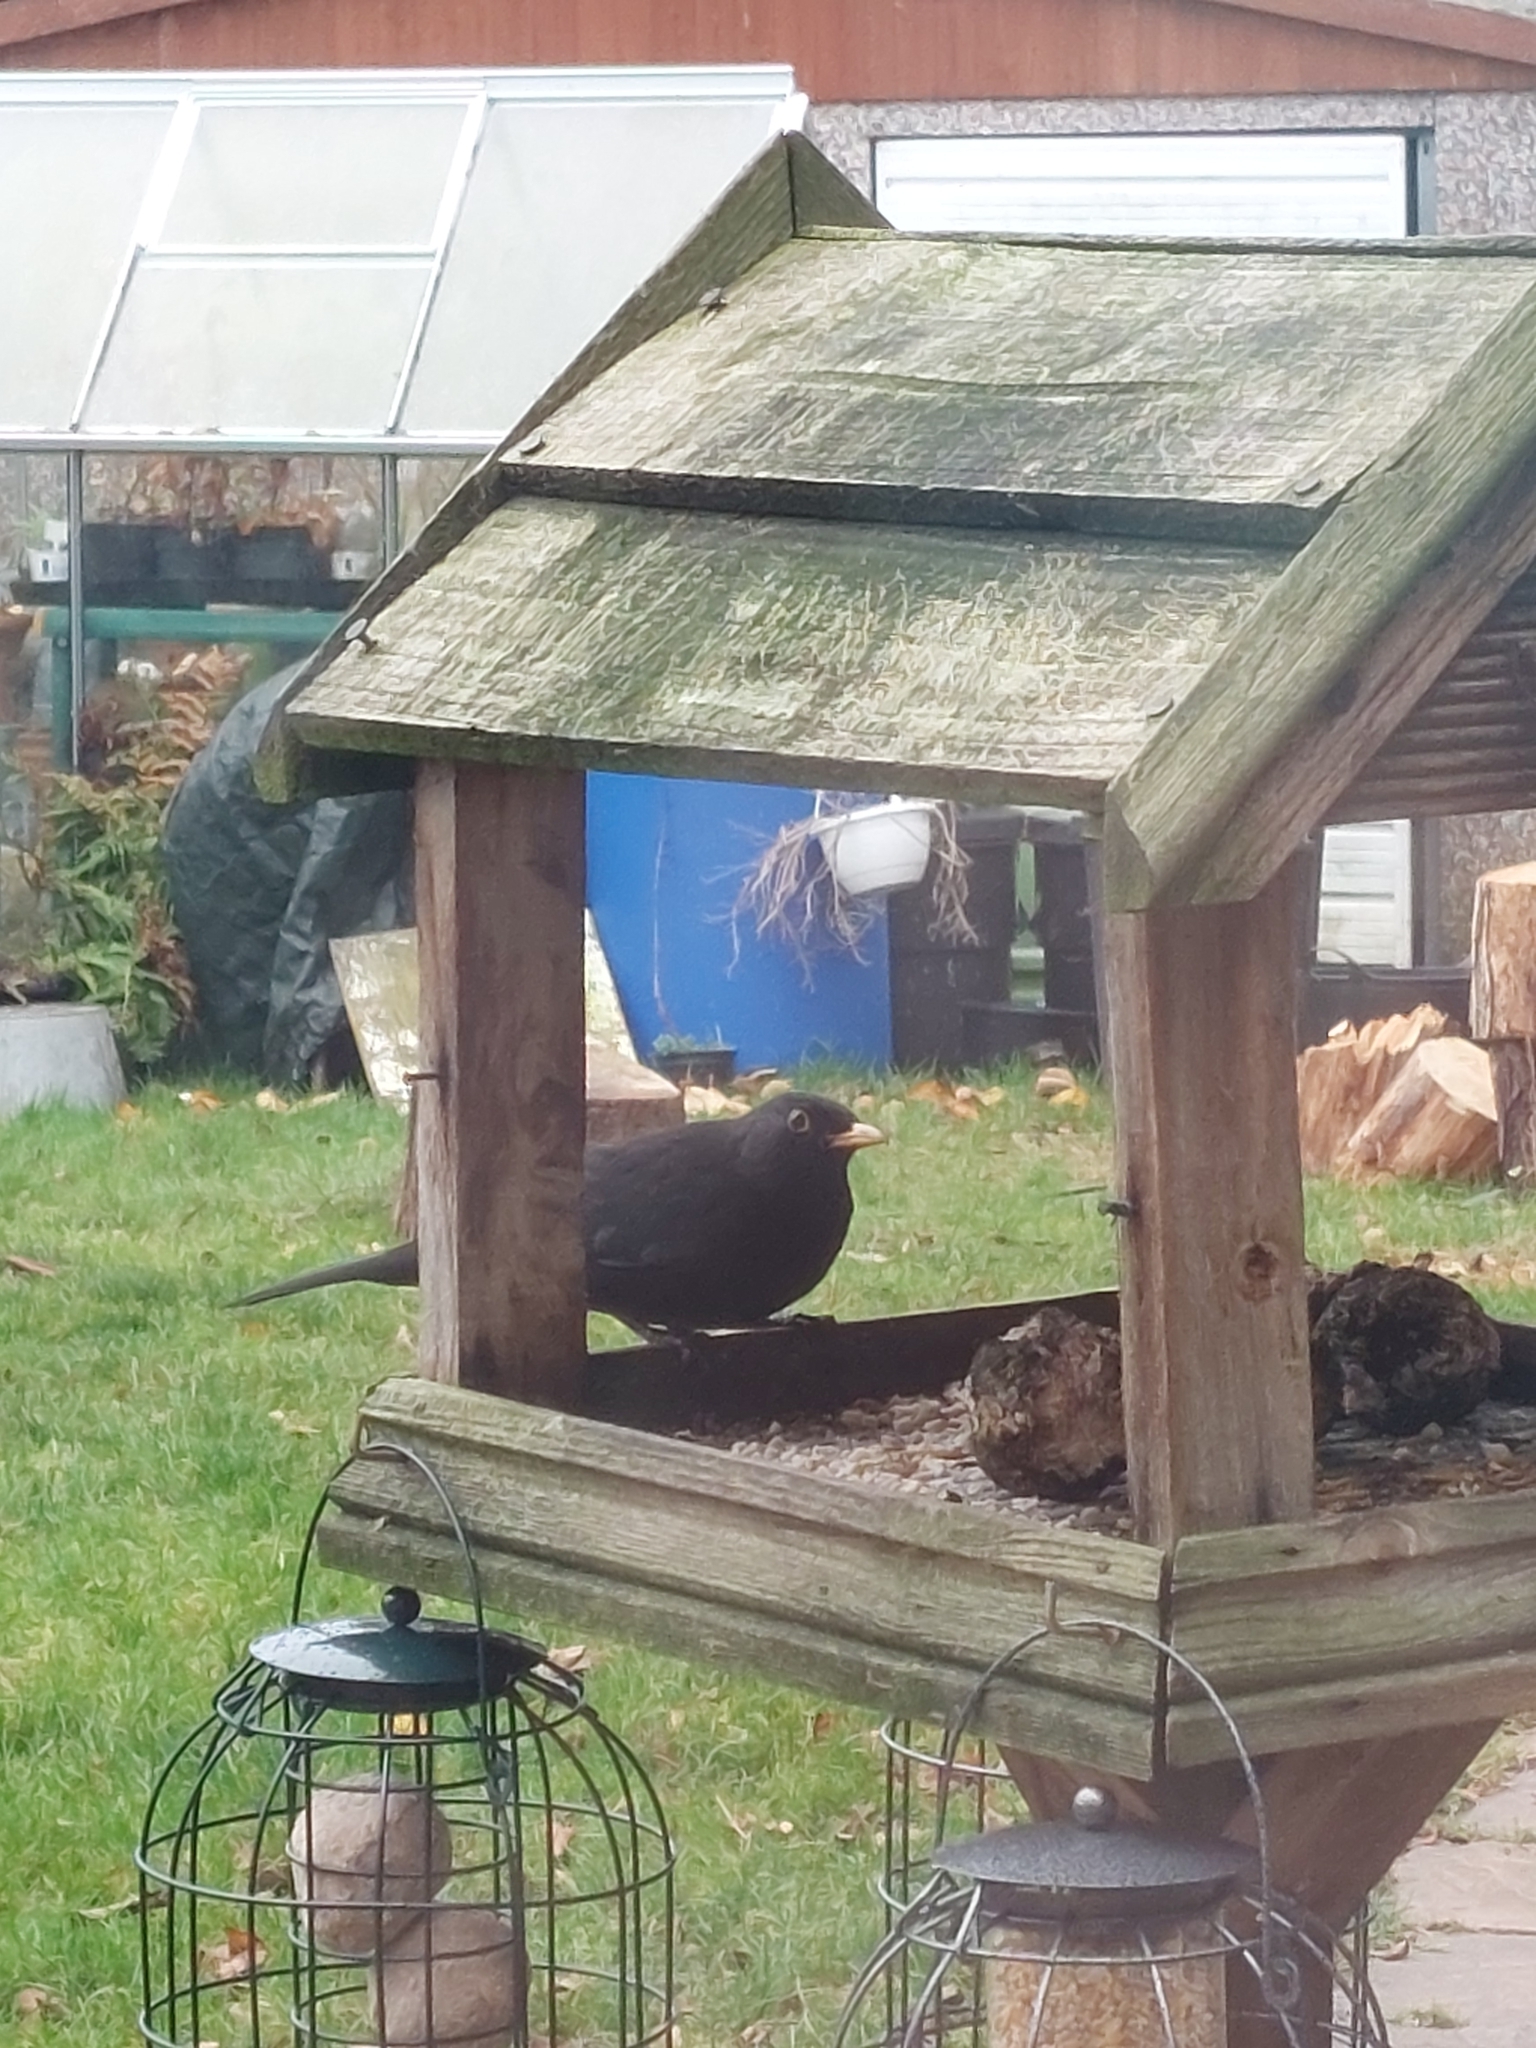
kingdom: Animalia
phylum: Chordata
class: Aves
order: Passeriformes
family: Turdidae
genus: Turdus
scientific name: Turdus merula
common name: Common blackbird
